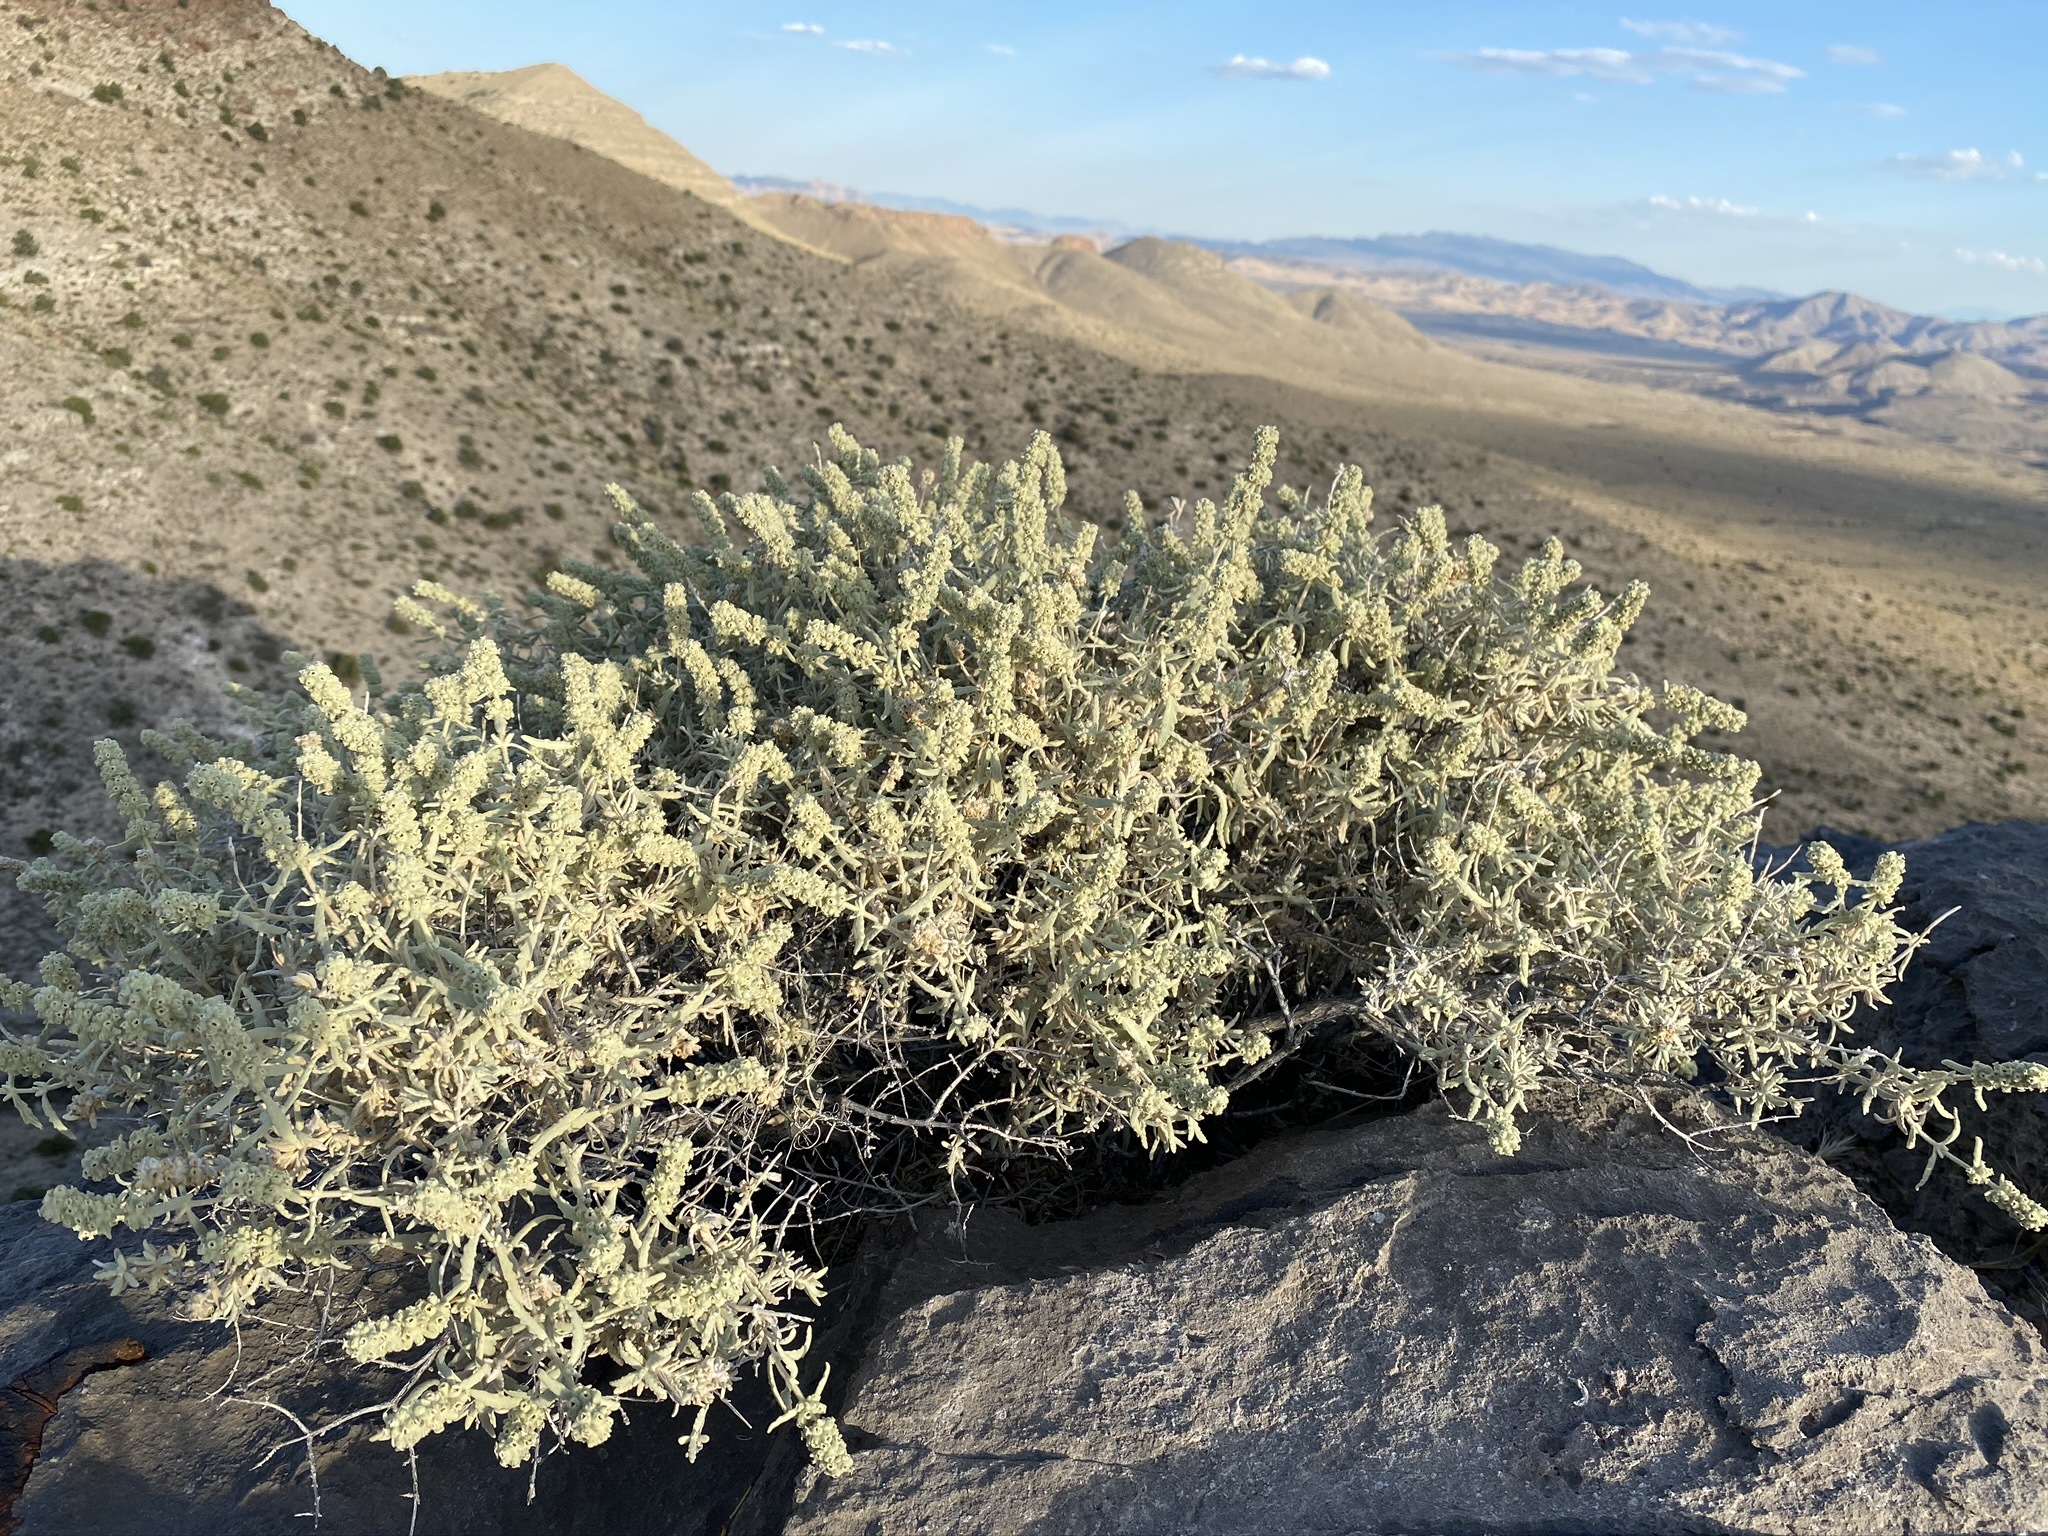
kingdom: Plantae
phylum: Tracheophyta
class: Magnoliopsida
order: Lamiales
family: Scrophulariaceae
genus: Buddleja
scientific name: Buddleja utahensis
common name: Utah butterfly-bush
